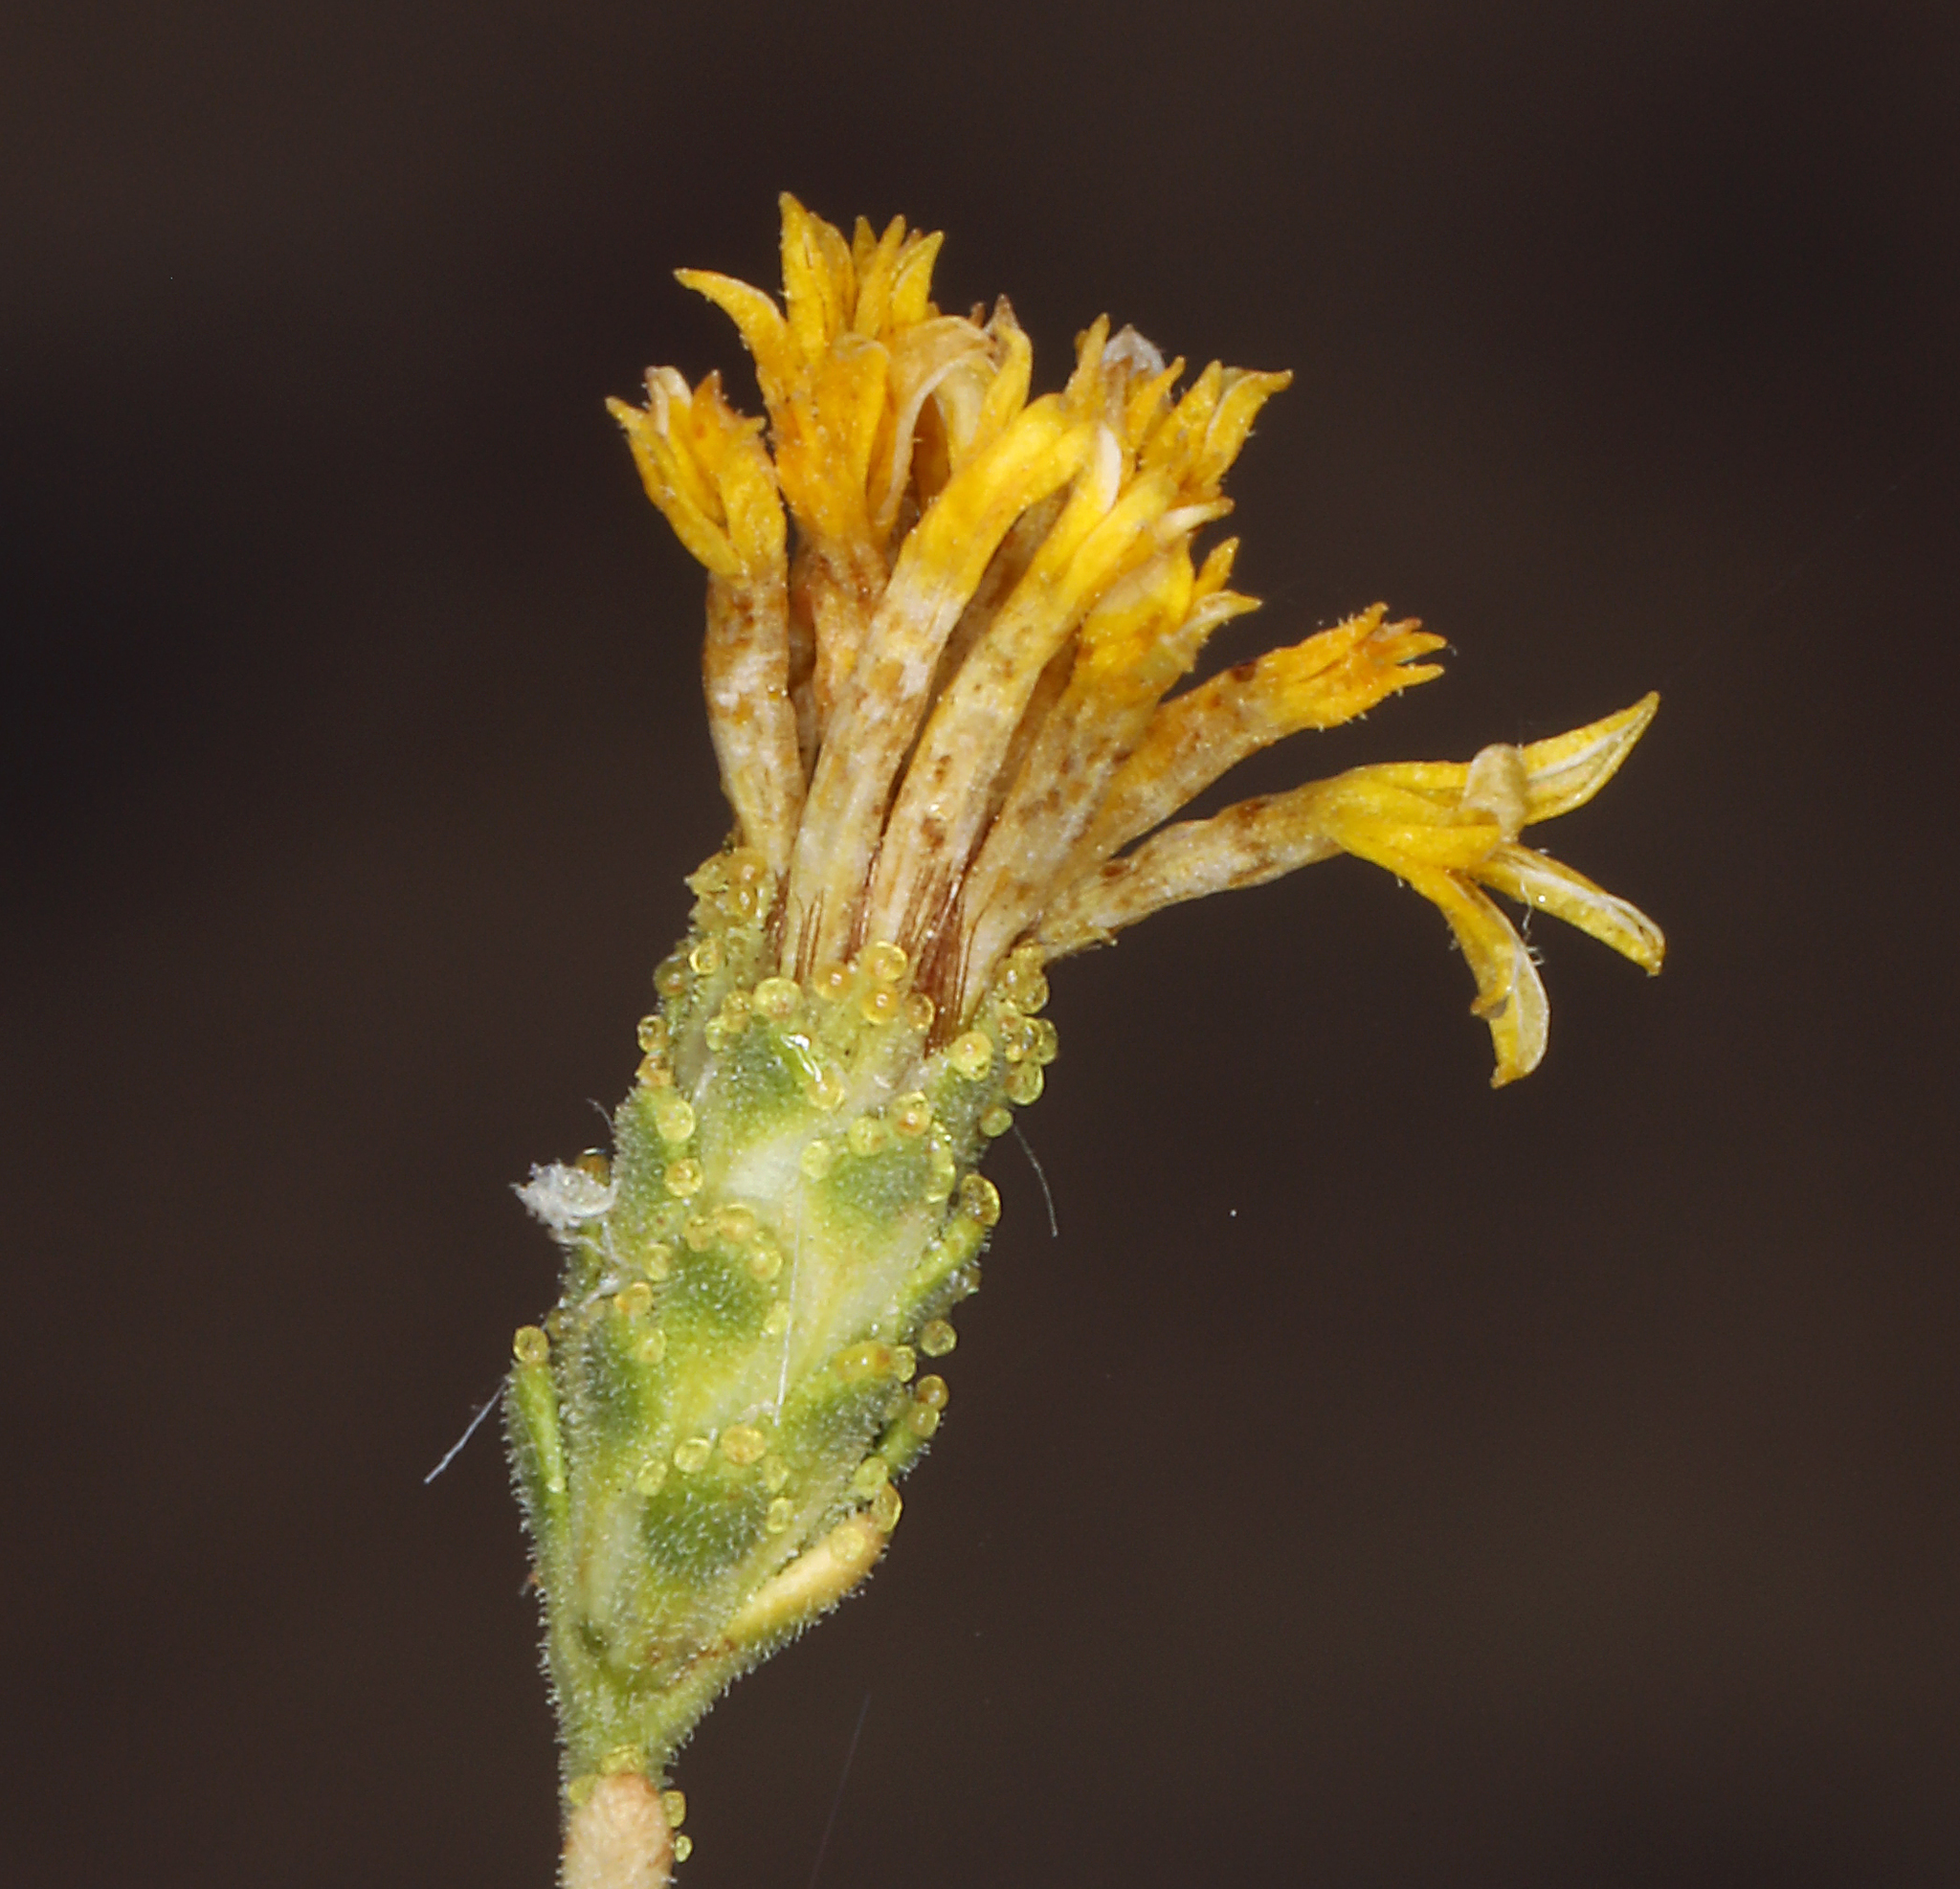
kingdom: Plantae
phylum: Tracheophyta
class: Magnoliopsida
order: Asterales
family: Asteraceae
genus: Lessingia
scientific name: Lessingia glandulifera
